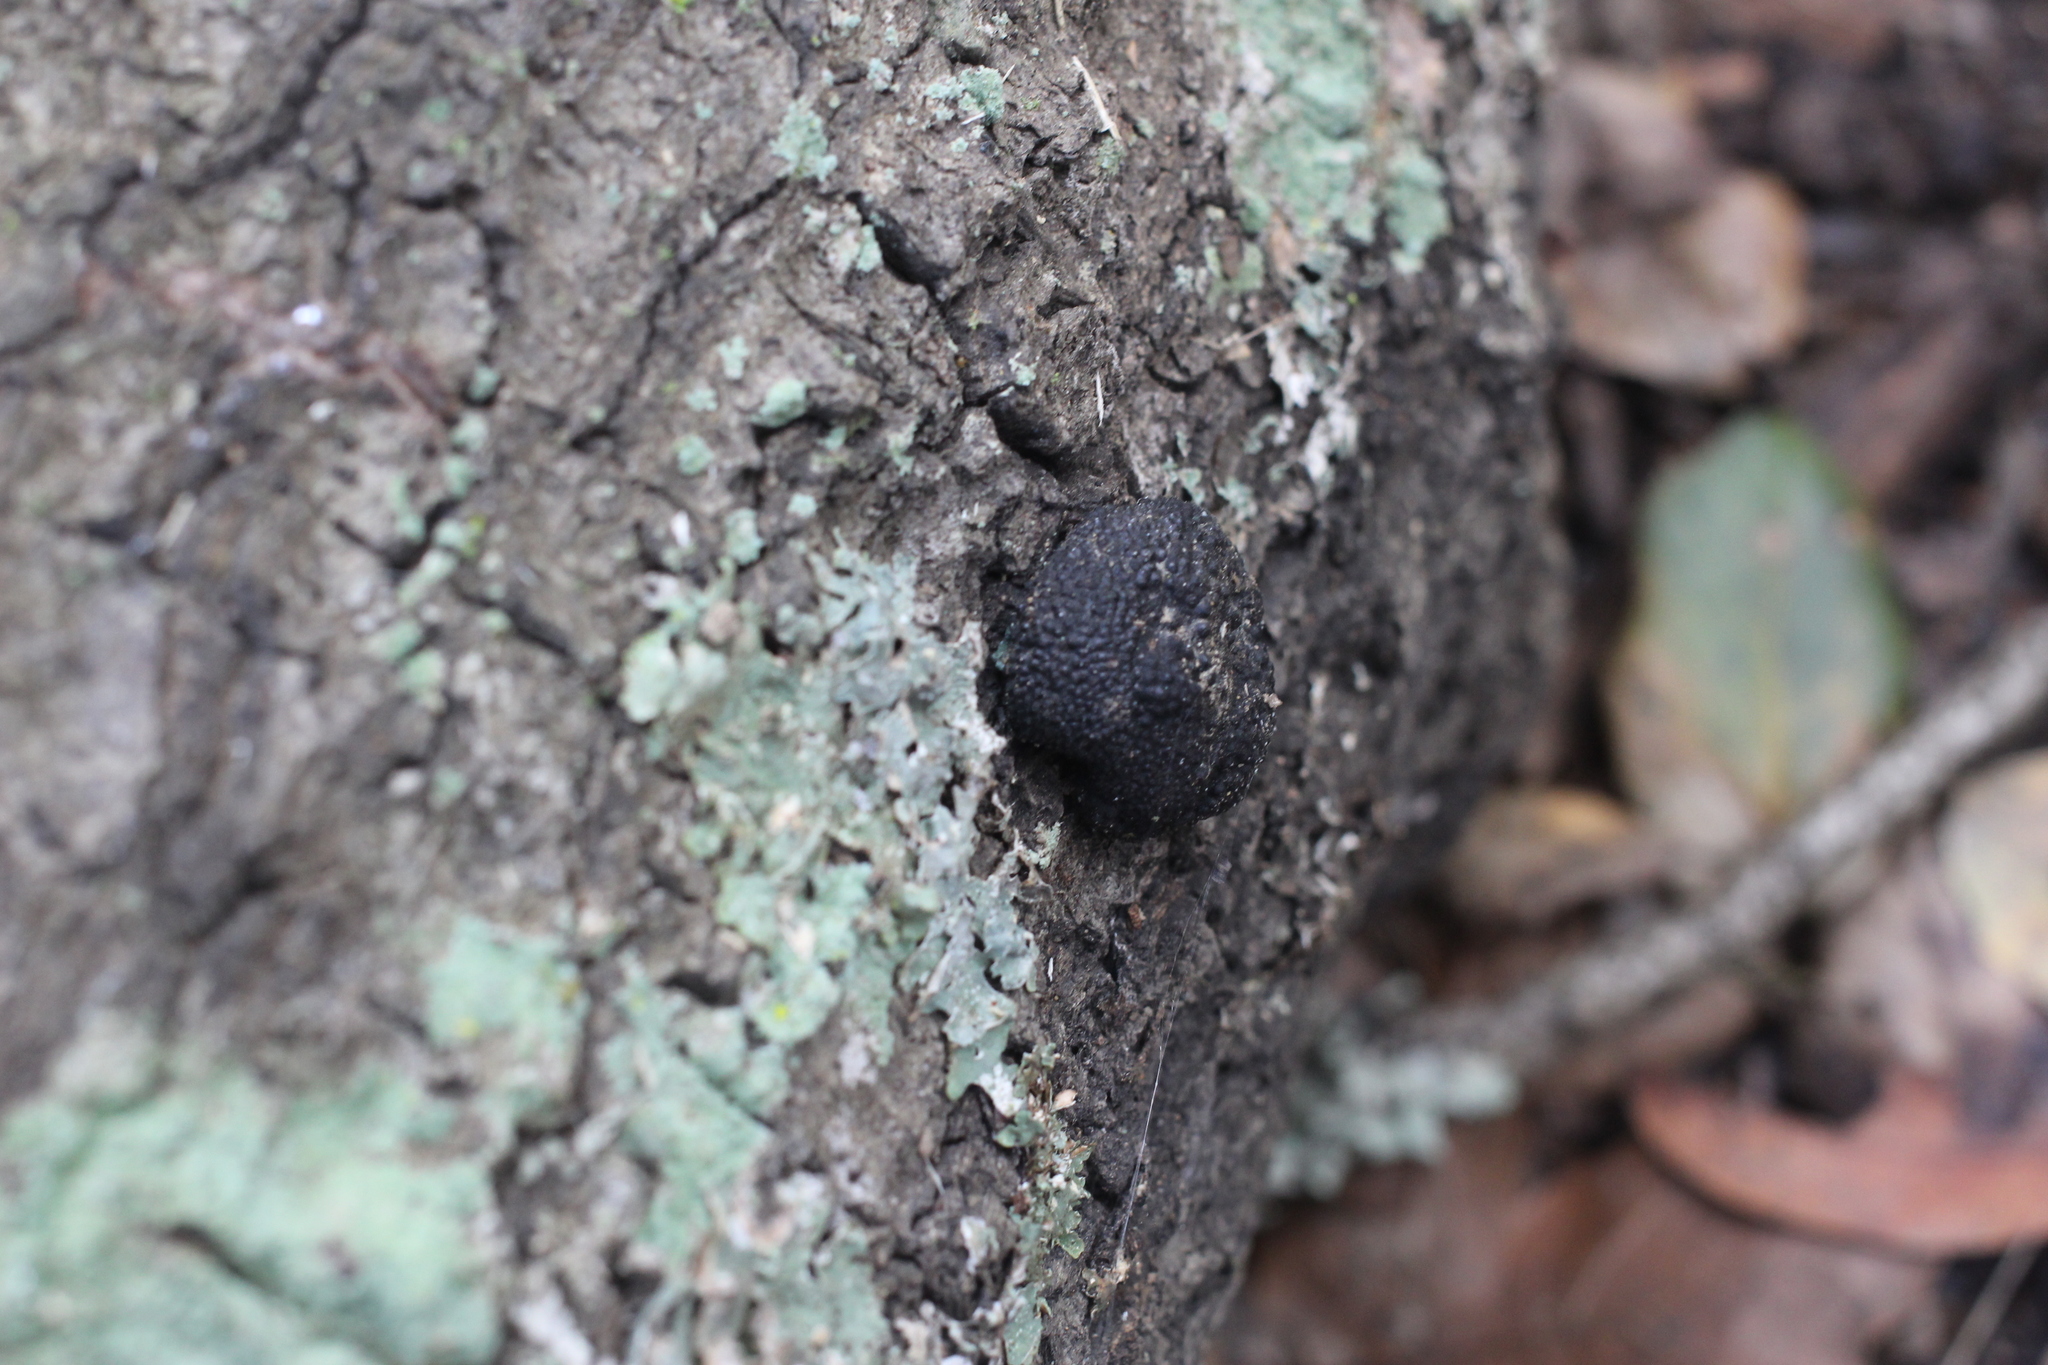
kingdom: Fungi
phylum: Ascomycota
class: Sordariomycetes
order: Xylariales
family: Hypoxylaceae
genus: Annulohypoxylon
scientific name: Annulohypoxylon thouarsianum
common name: Cramp balls
